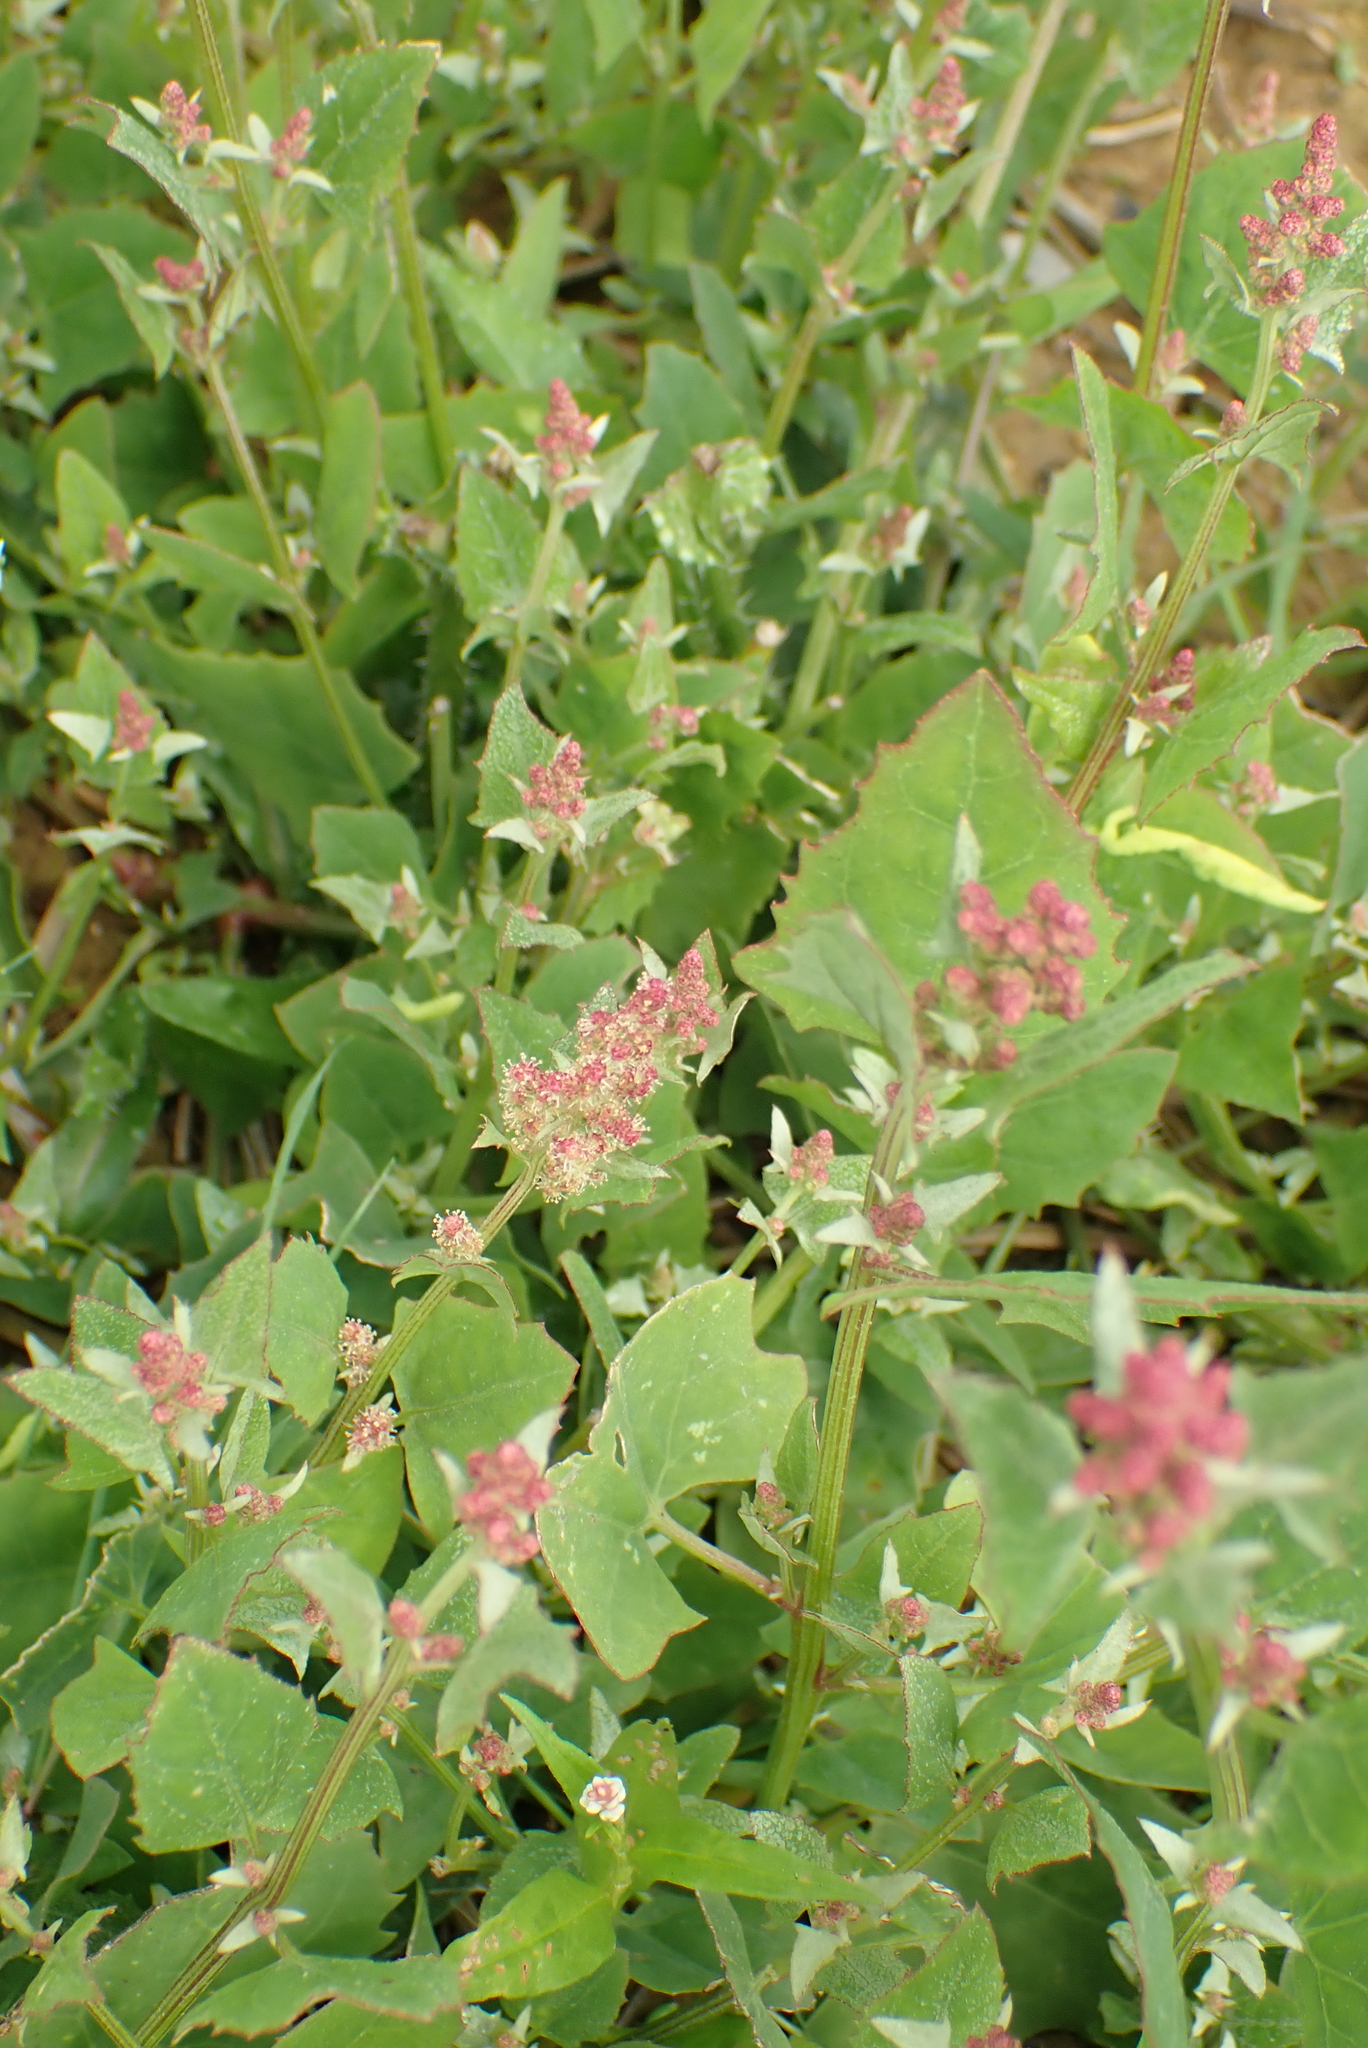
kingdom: Plantae
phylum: Tracheophyta
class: Magnoliopsida
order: Caryophyllales
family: Amaranthaceae
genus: Atriplex
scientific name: Atriplex prostrata
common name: Spear-leaved orache
